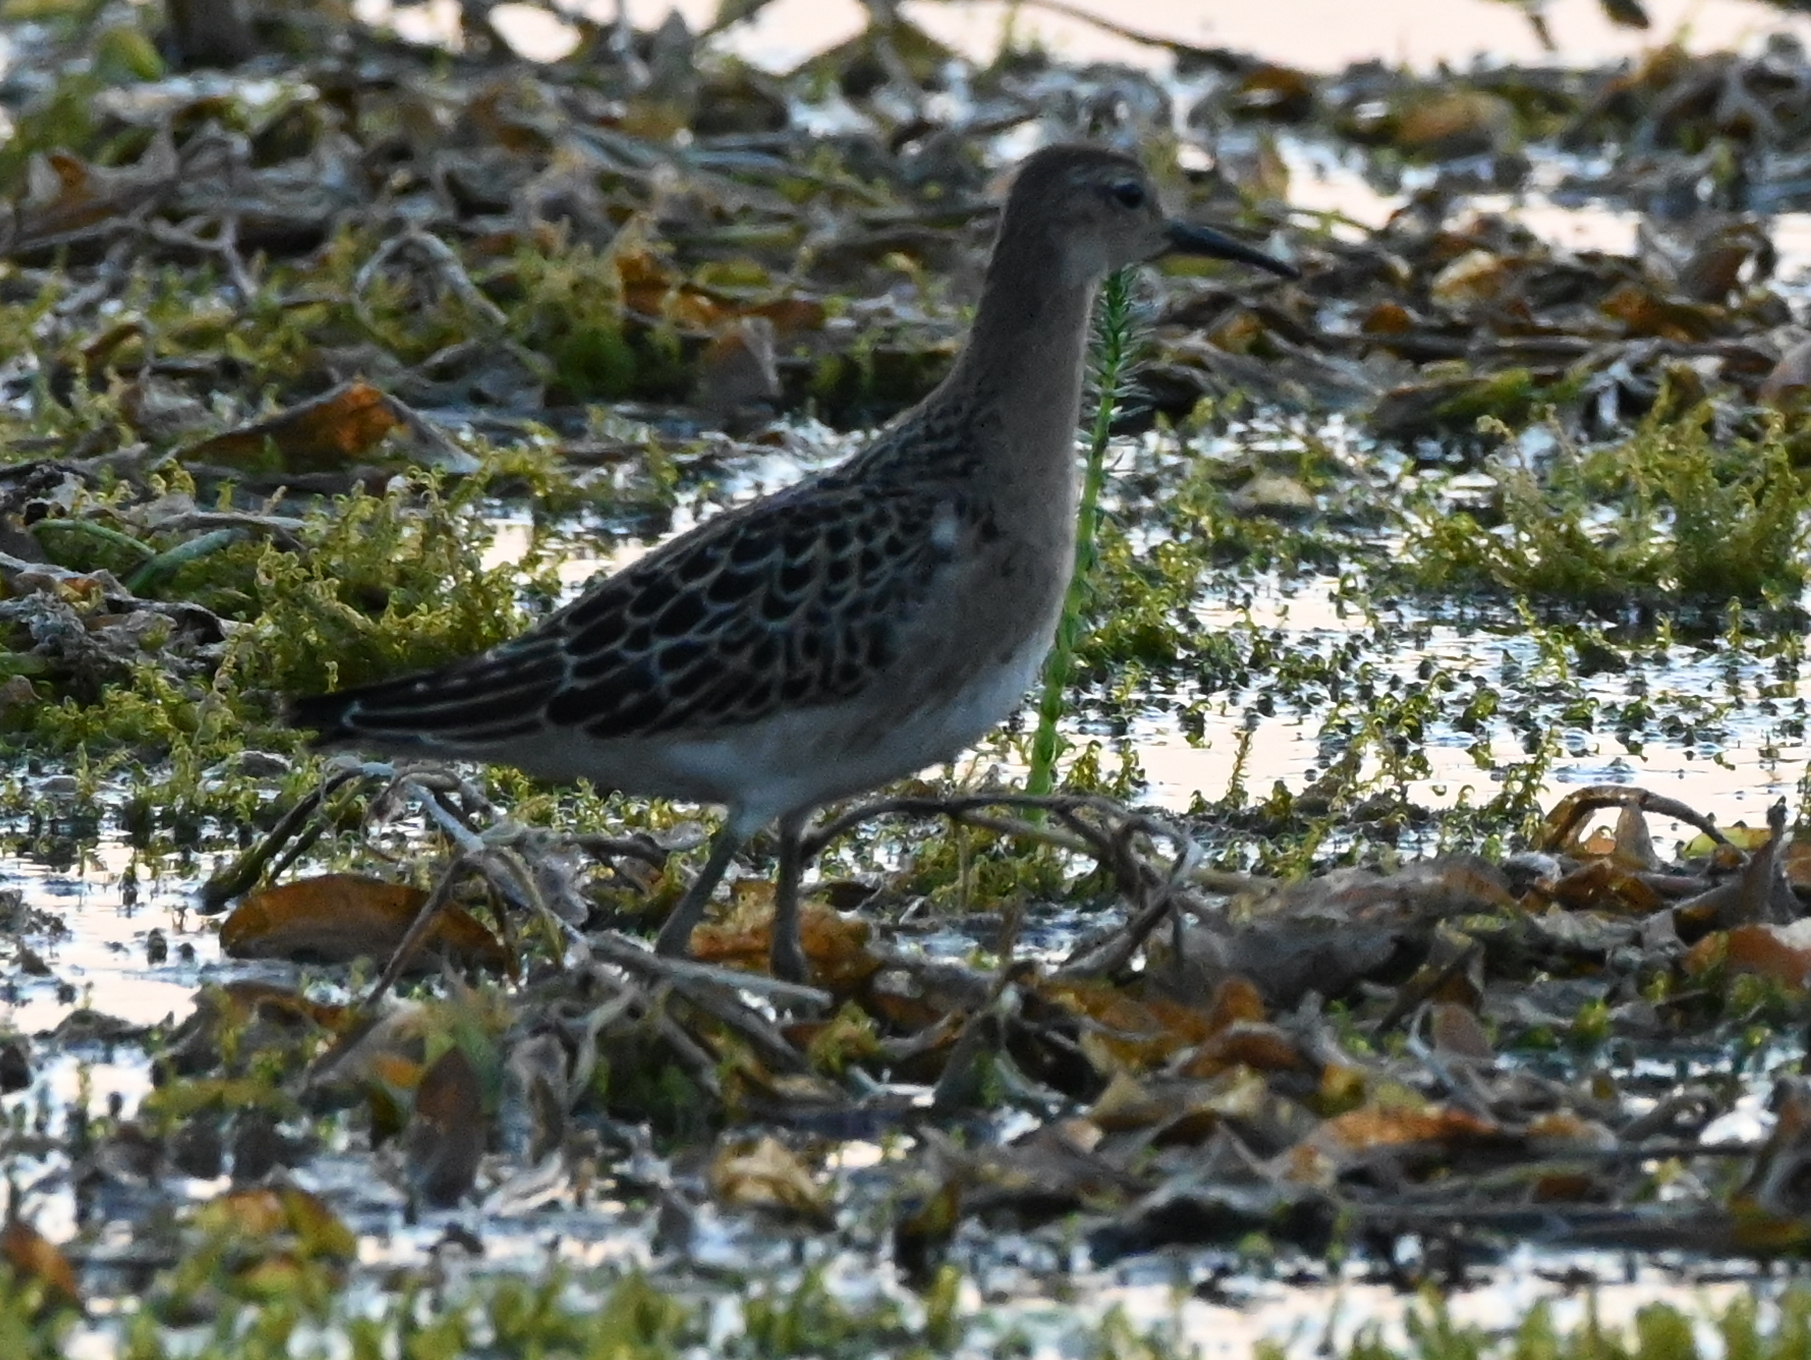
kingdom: Animalia
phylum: Chordata
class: Aves
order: Charadriiformes
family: Scolopacidae
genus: Calidris
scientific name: Calidris pugnax
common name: Ruff
